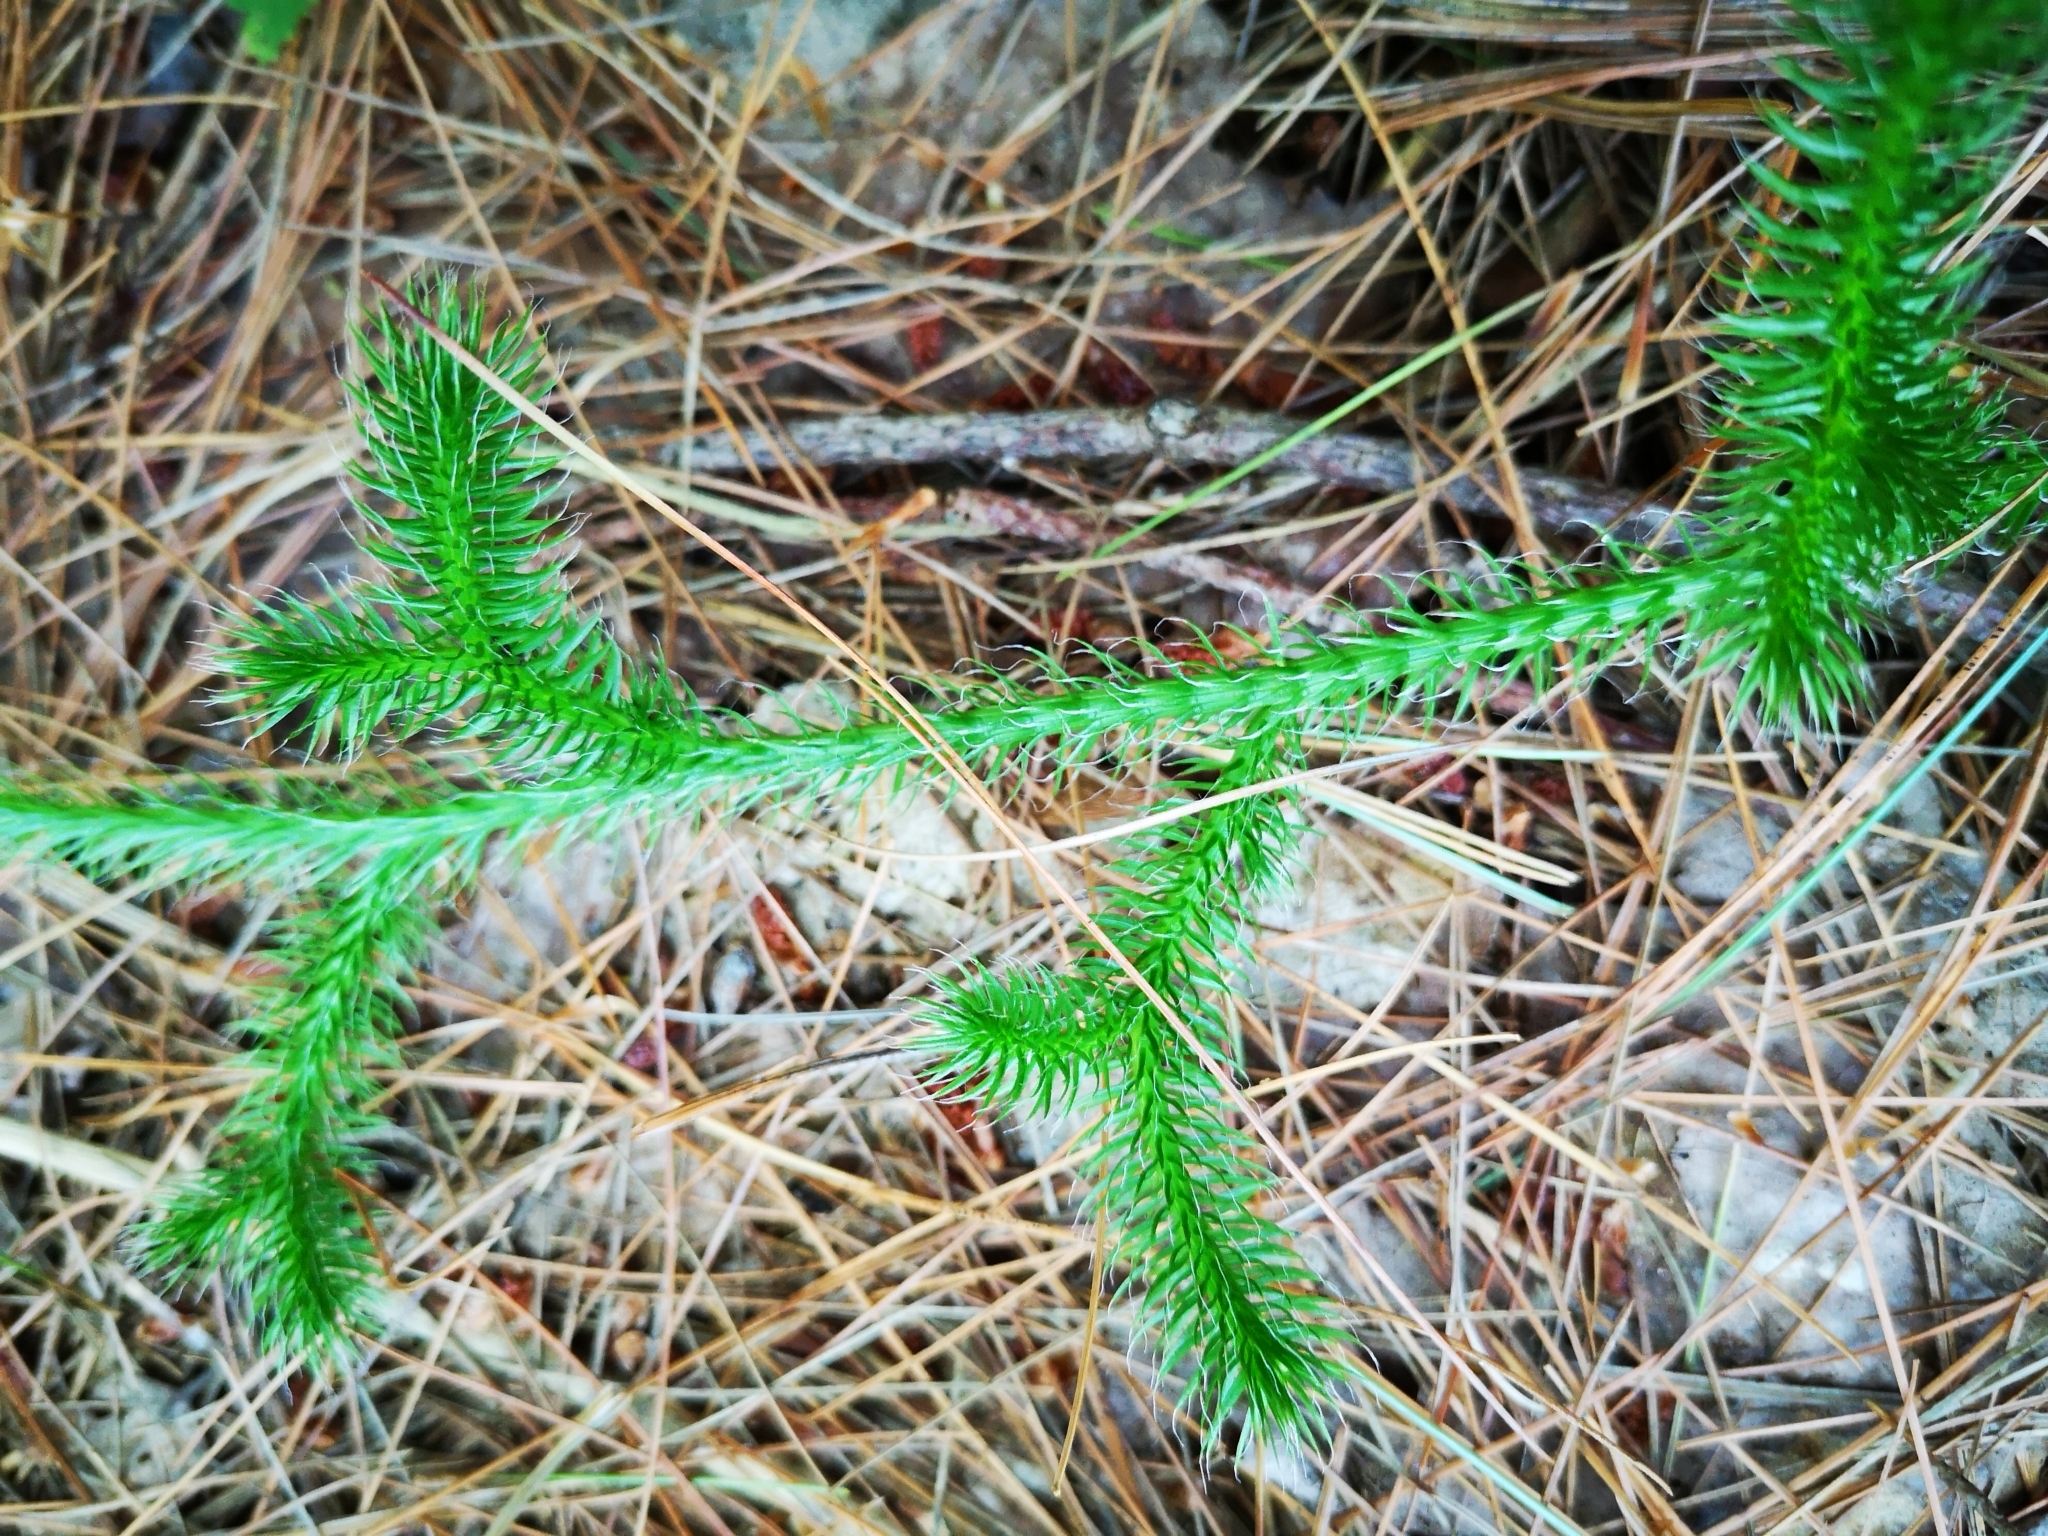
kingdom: Plantae
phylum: Tracheophyta
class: Lycopodiopsida
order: Lycopodiales
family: Lycopodiaceae
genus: Lycopodium
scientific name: Lycopodium clavatum
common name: Stag's-horn clubmoss
